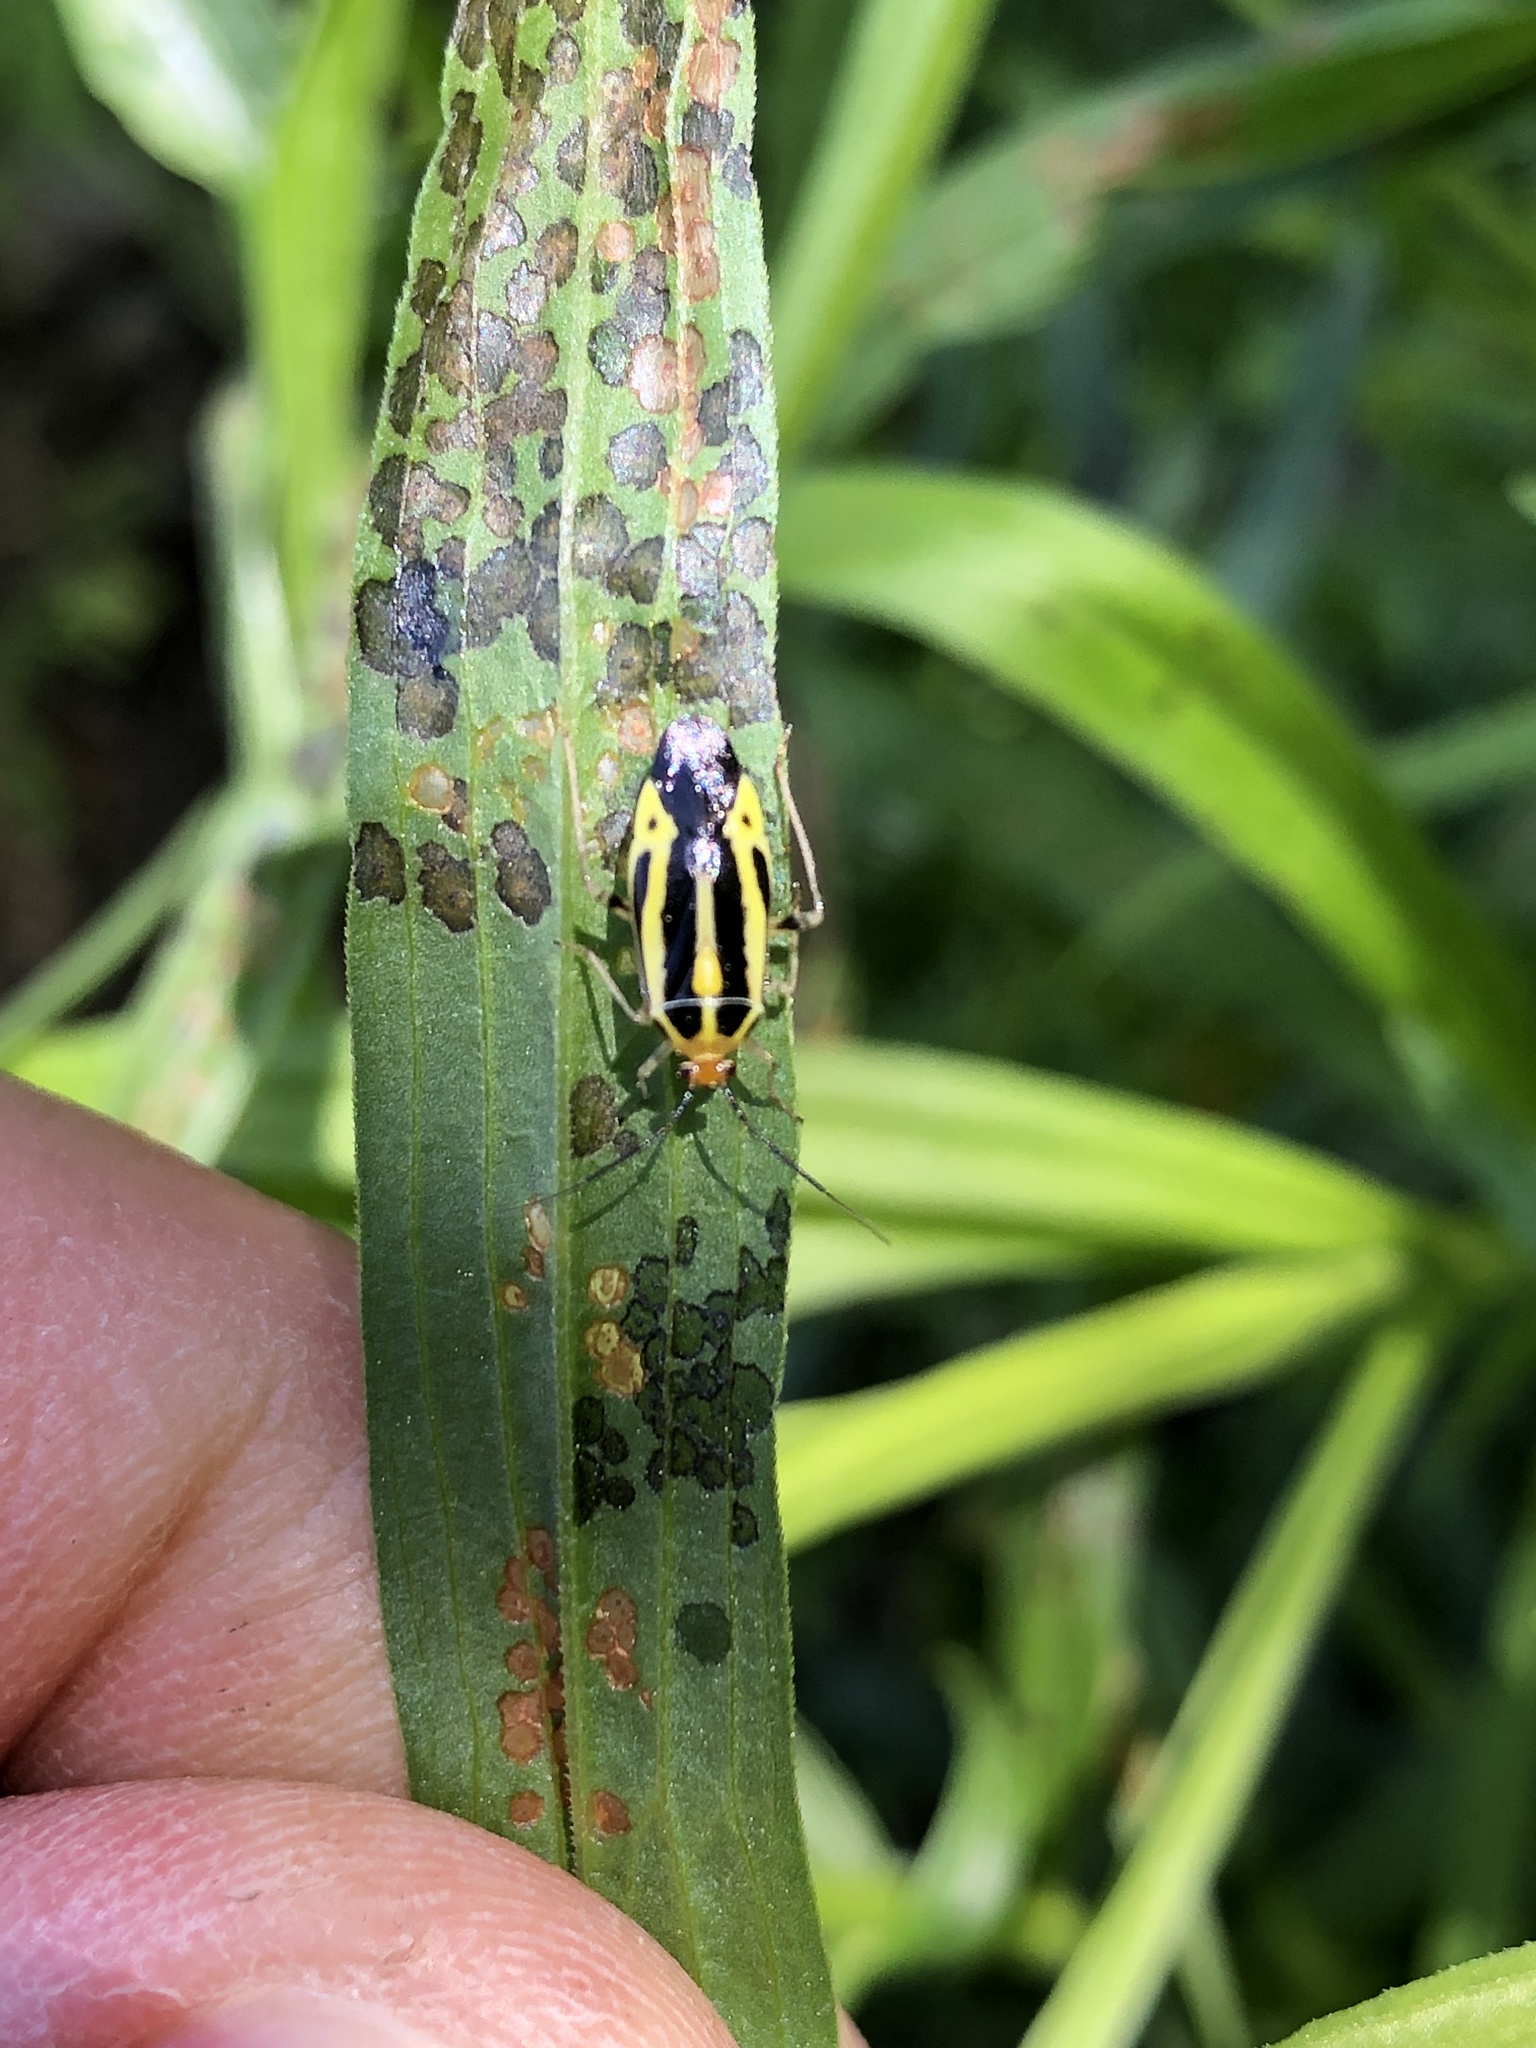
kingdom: Animalia
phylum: Arthropoda
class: Insecta
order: Hemiptera
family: Miridae
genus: Poecilocapsus
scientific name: Poecilocapsus lineatus
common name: Four-lined plant bug
